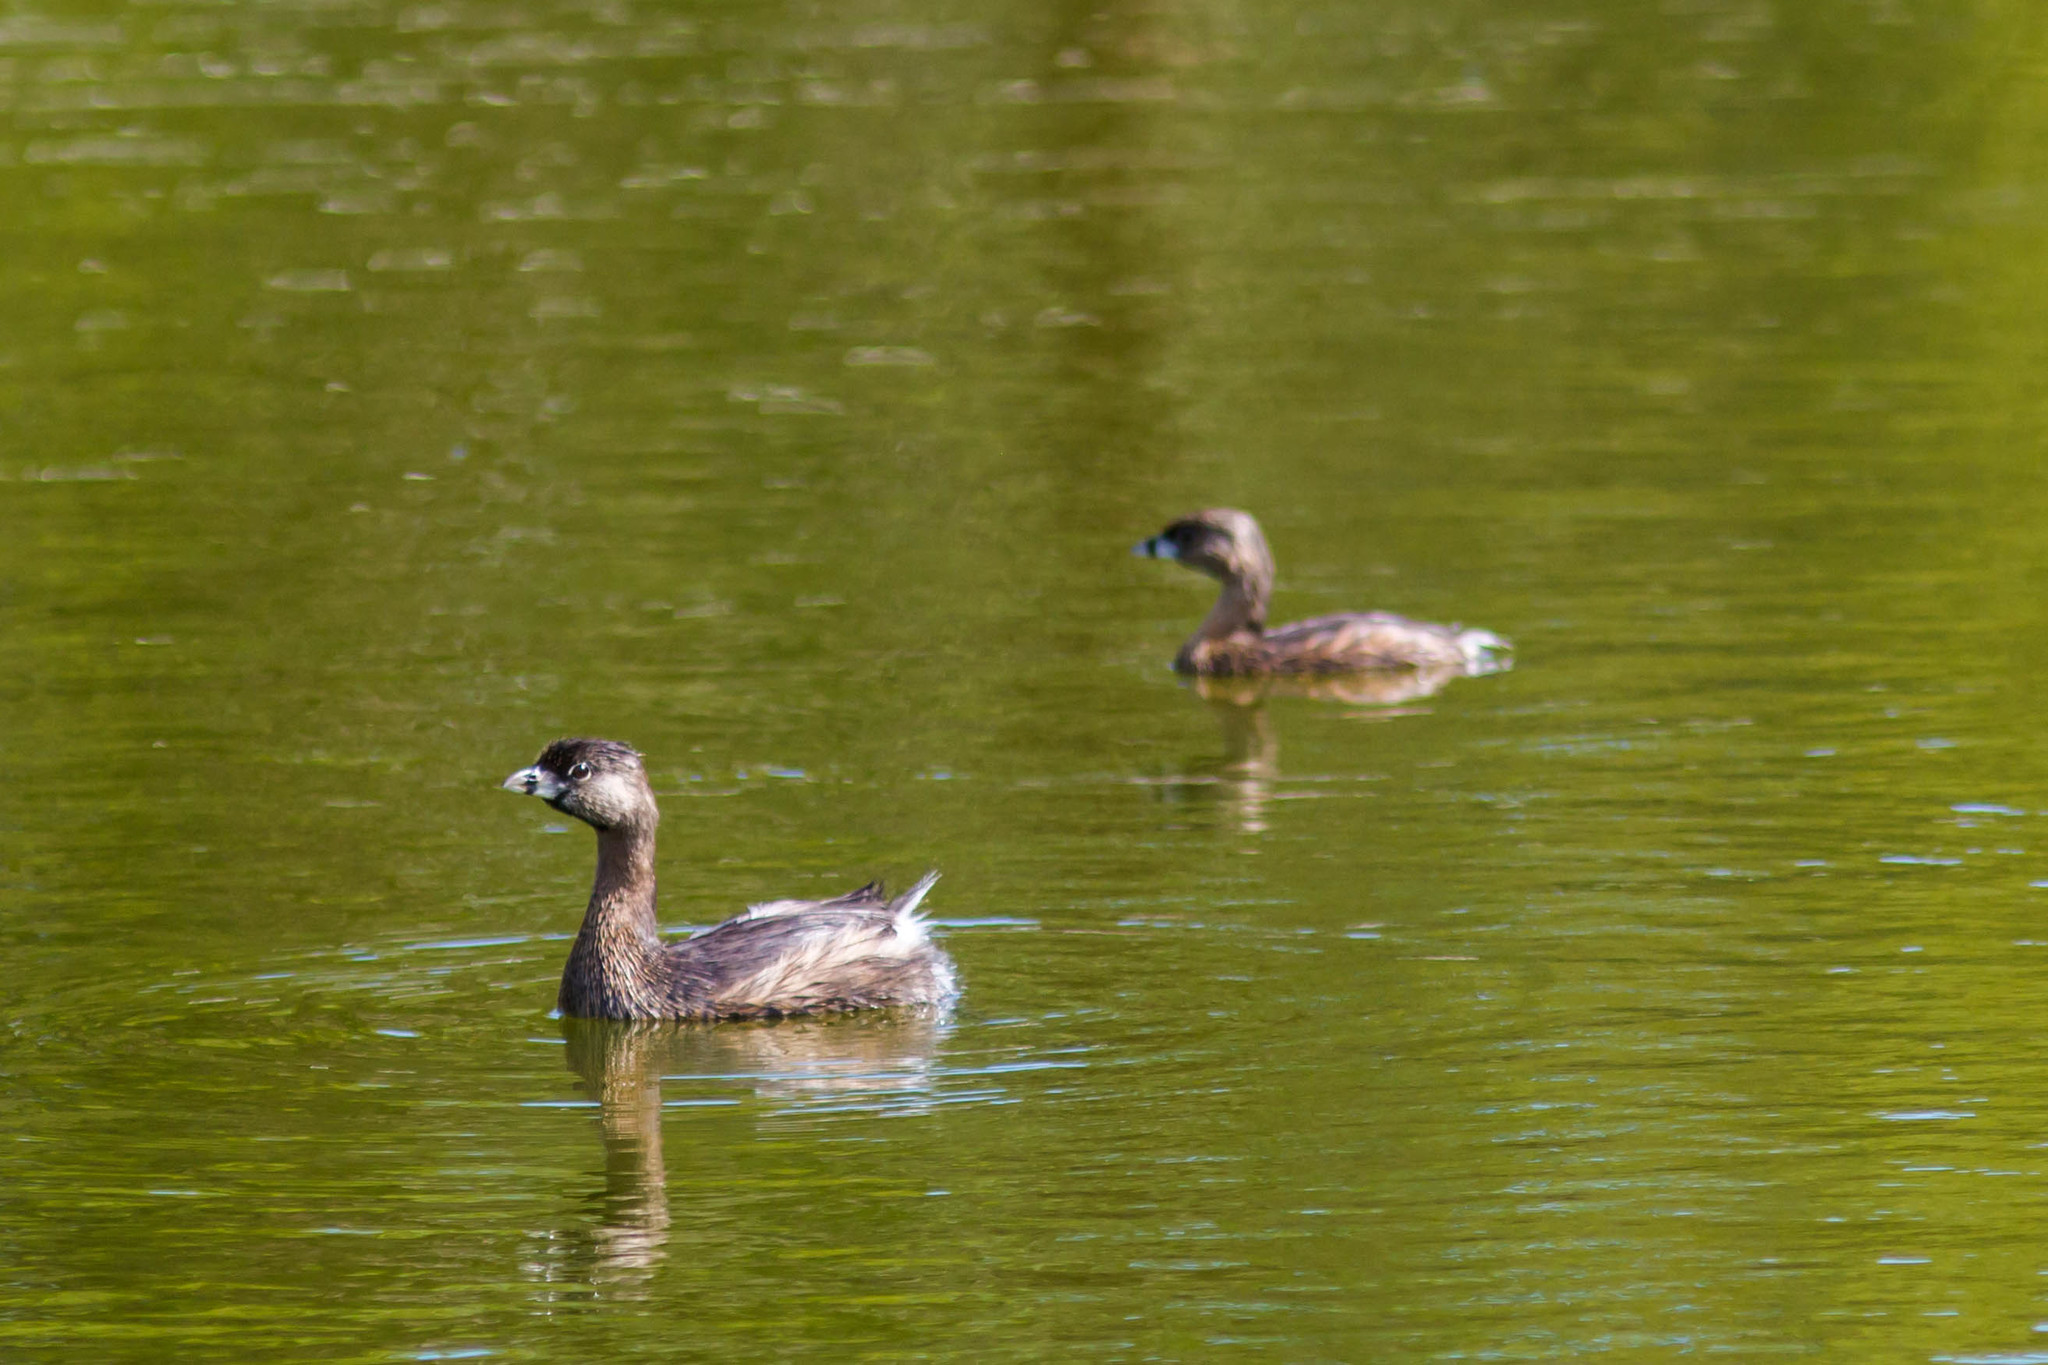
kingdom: Animalia
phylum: Chordata
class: Aves
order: Podicipediformes
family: Podicipedidae
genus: Podilymbus
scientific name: Podilymbus podiceps
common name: Pied-billed grebe
